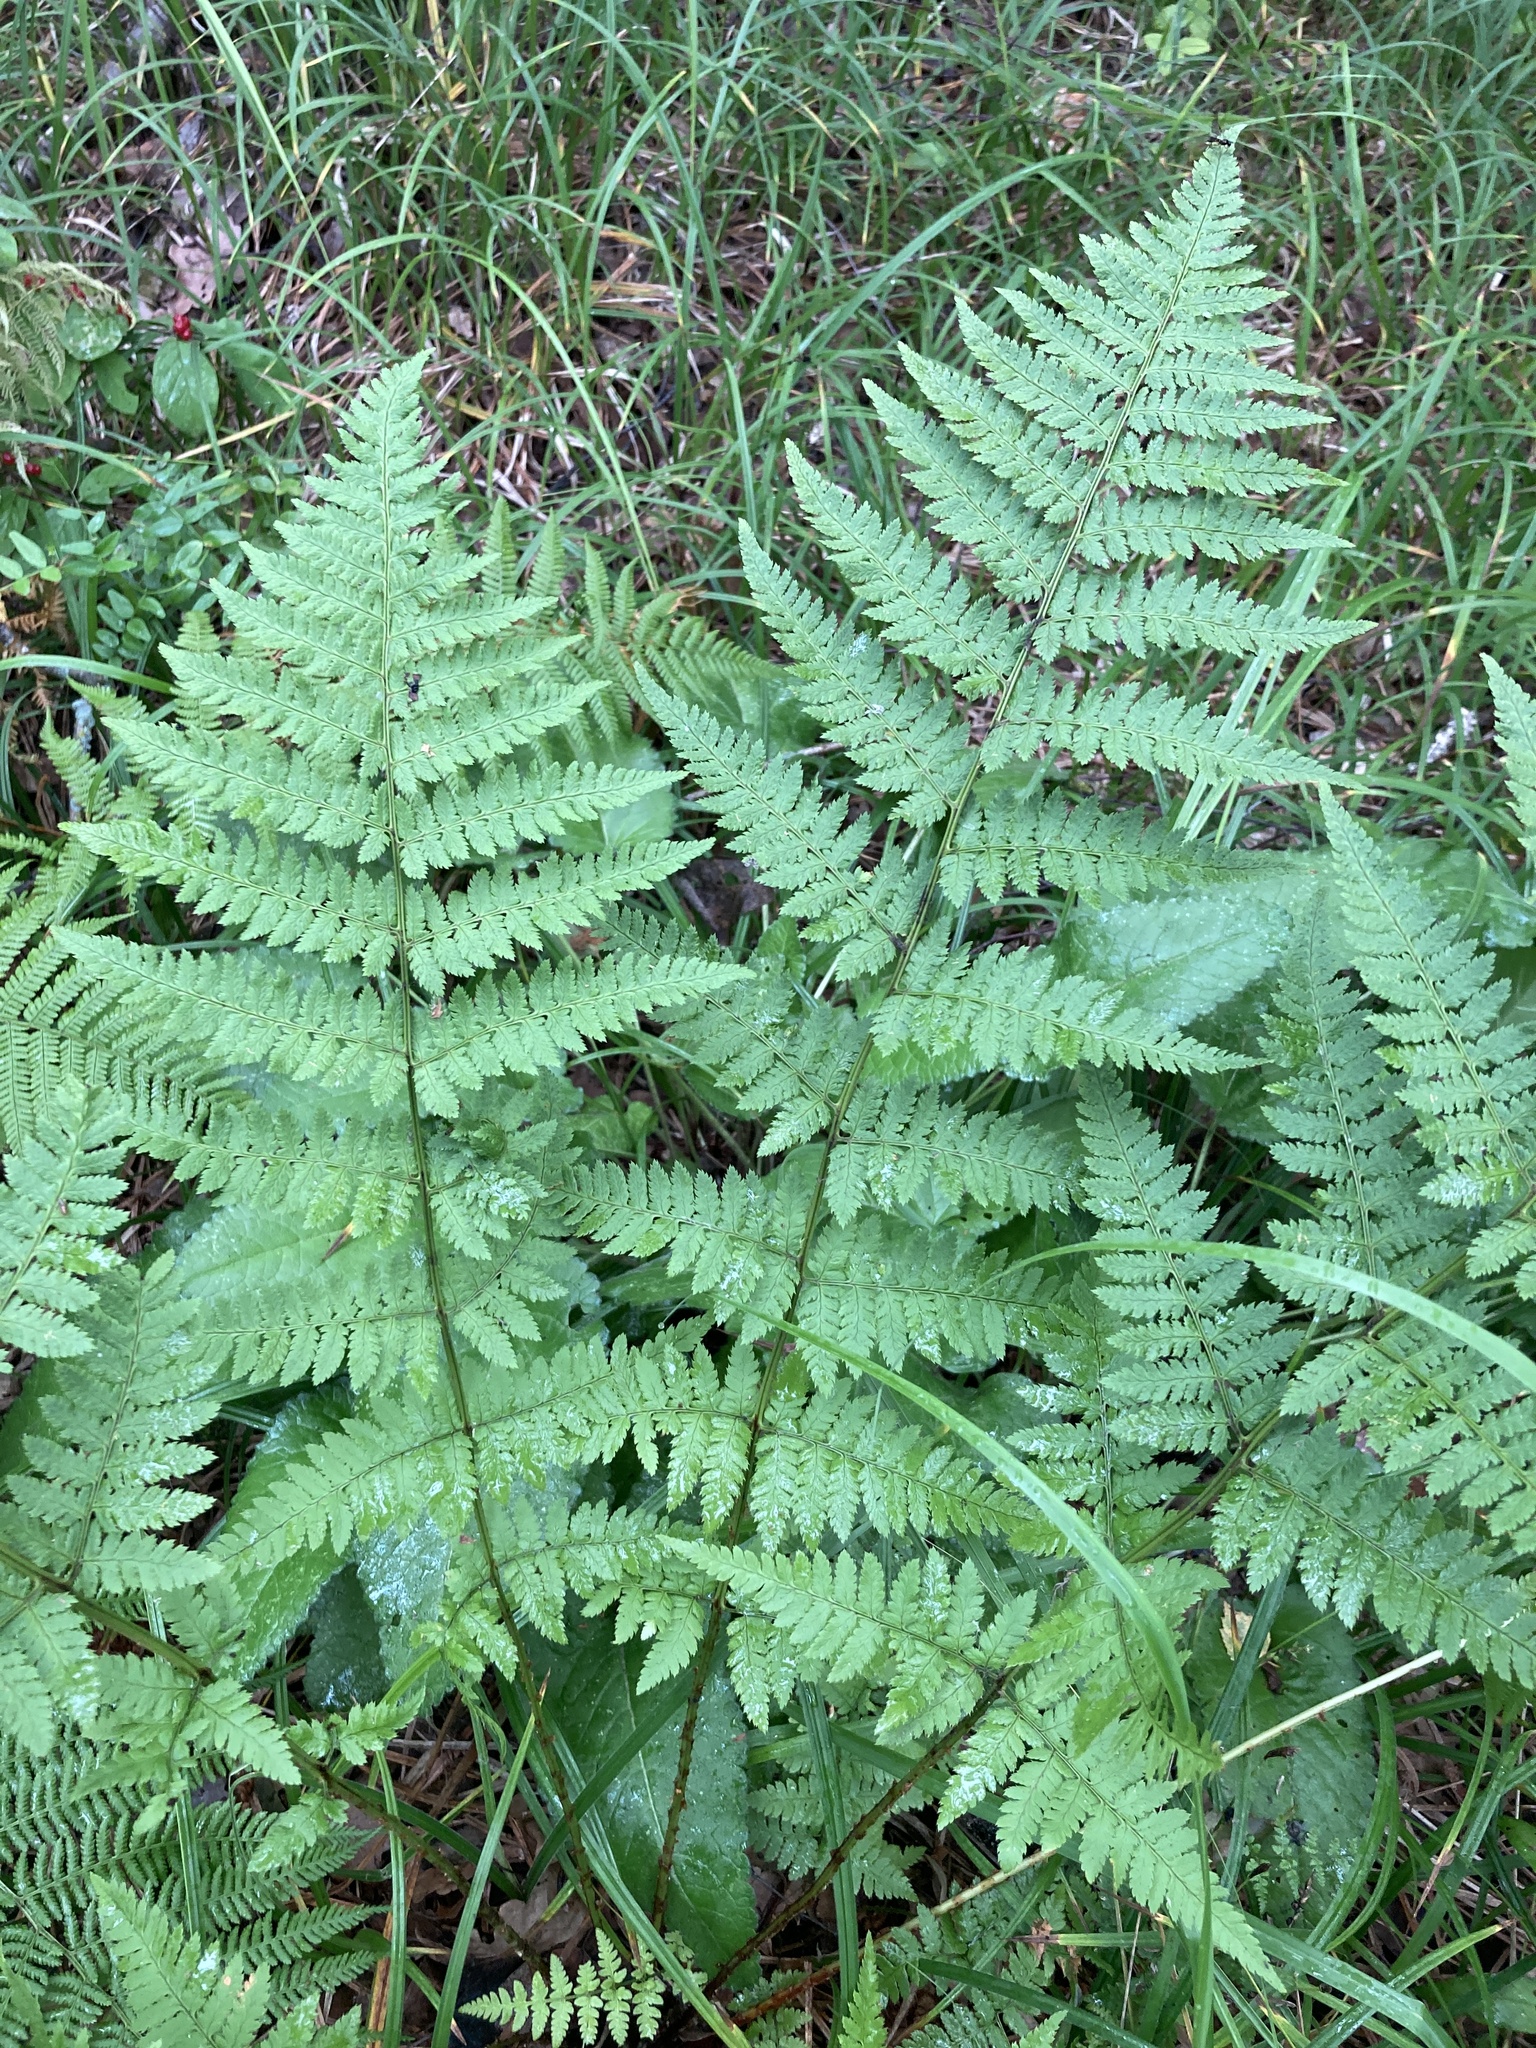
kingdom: Plantae
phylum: Tracheophyta
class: Polypodiopsida
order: Polypodiales
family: Dryopteridaceae
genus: Dryopteris
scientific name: Dryopteris carthusiana
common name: Narrow buckler-fern
